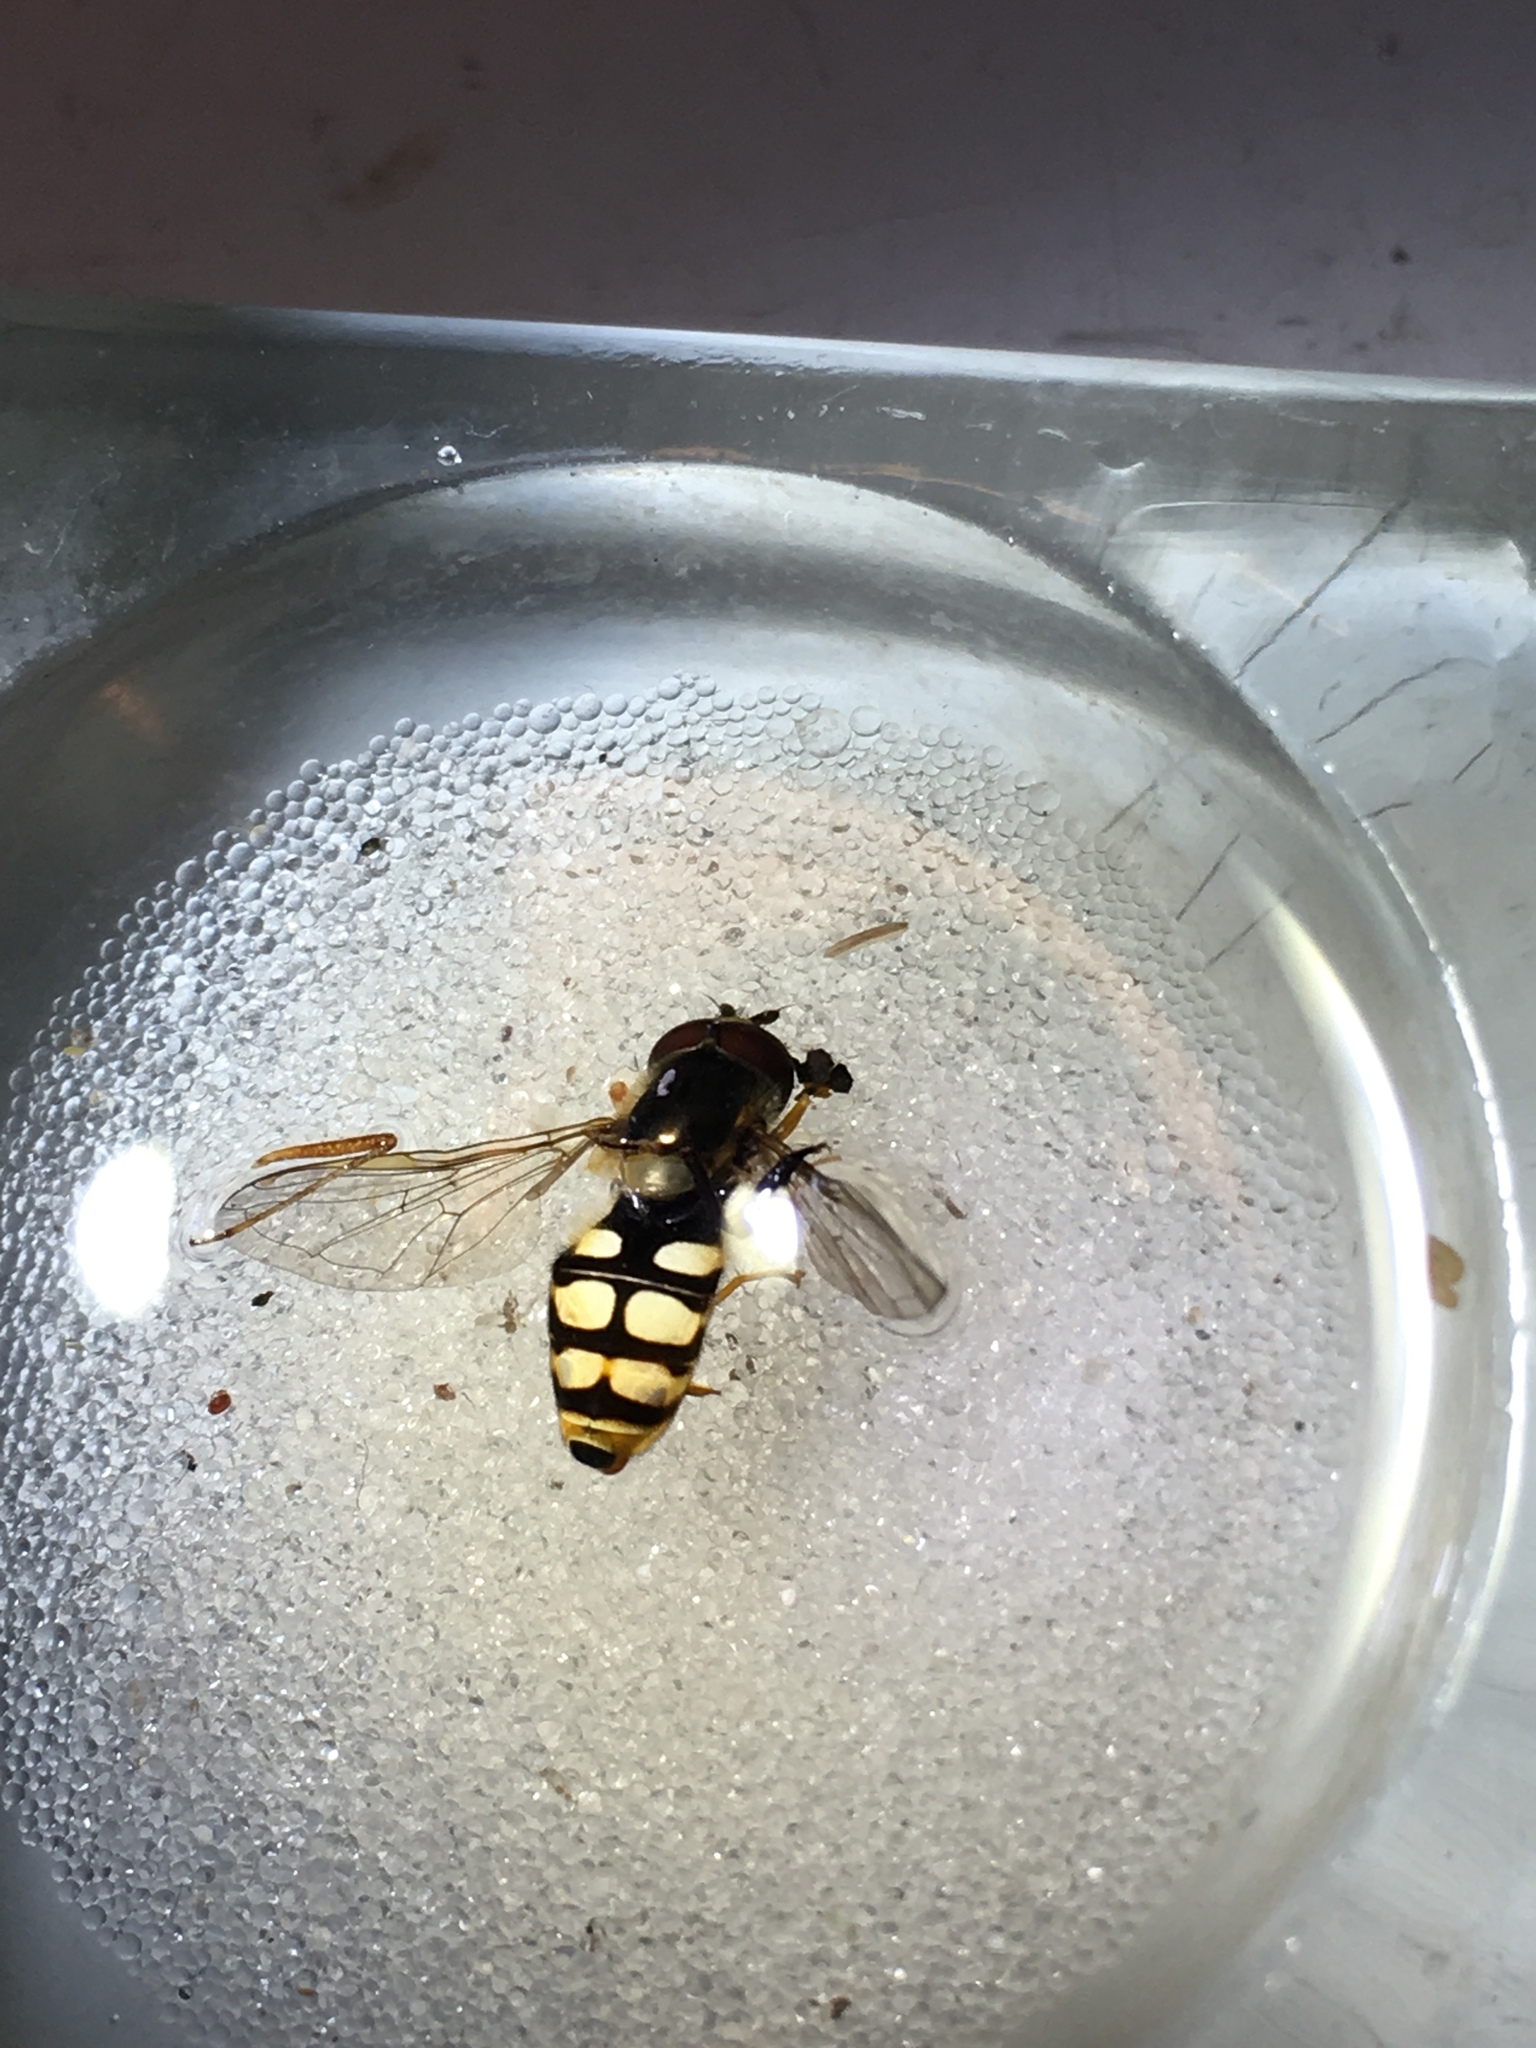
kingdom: Animalia
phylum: Arthropoda
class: Insecta
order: Diptera
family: Syrphidae
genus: Eupeodes
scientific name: Eupeodes corollae
